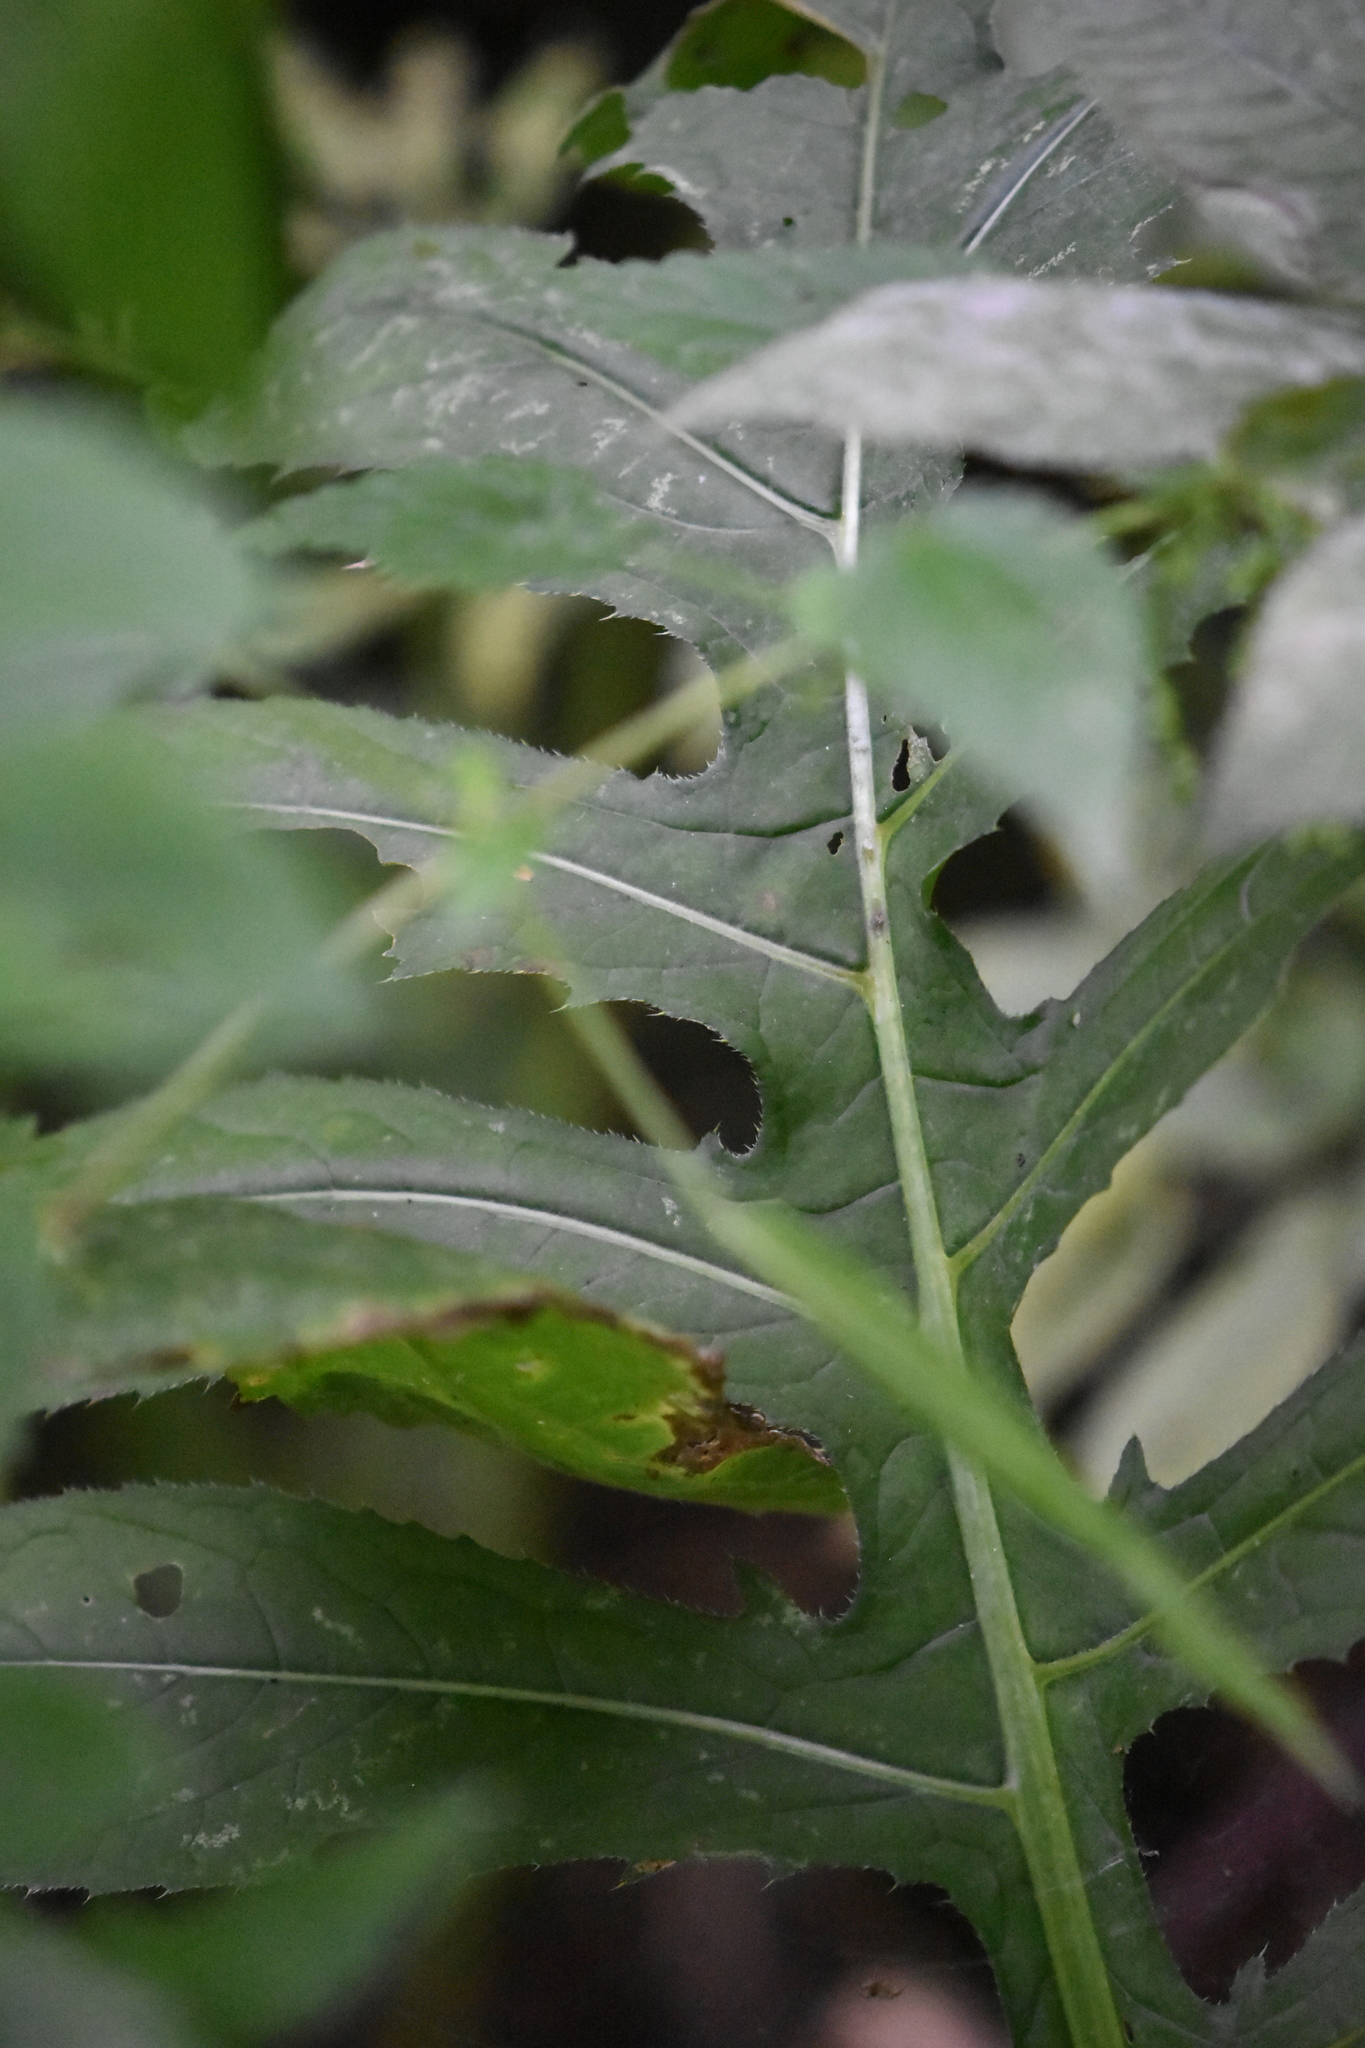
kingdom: Plantae
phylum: Tracheophyta
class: Magnoliopsida
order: Asterales
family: Asteraceae
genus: Cirsium
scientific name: Cirsium oleraceum
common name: Cabbage thistle
